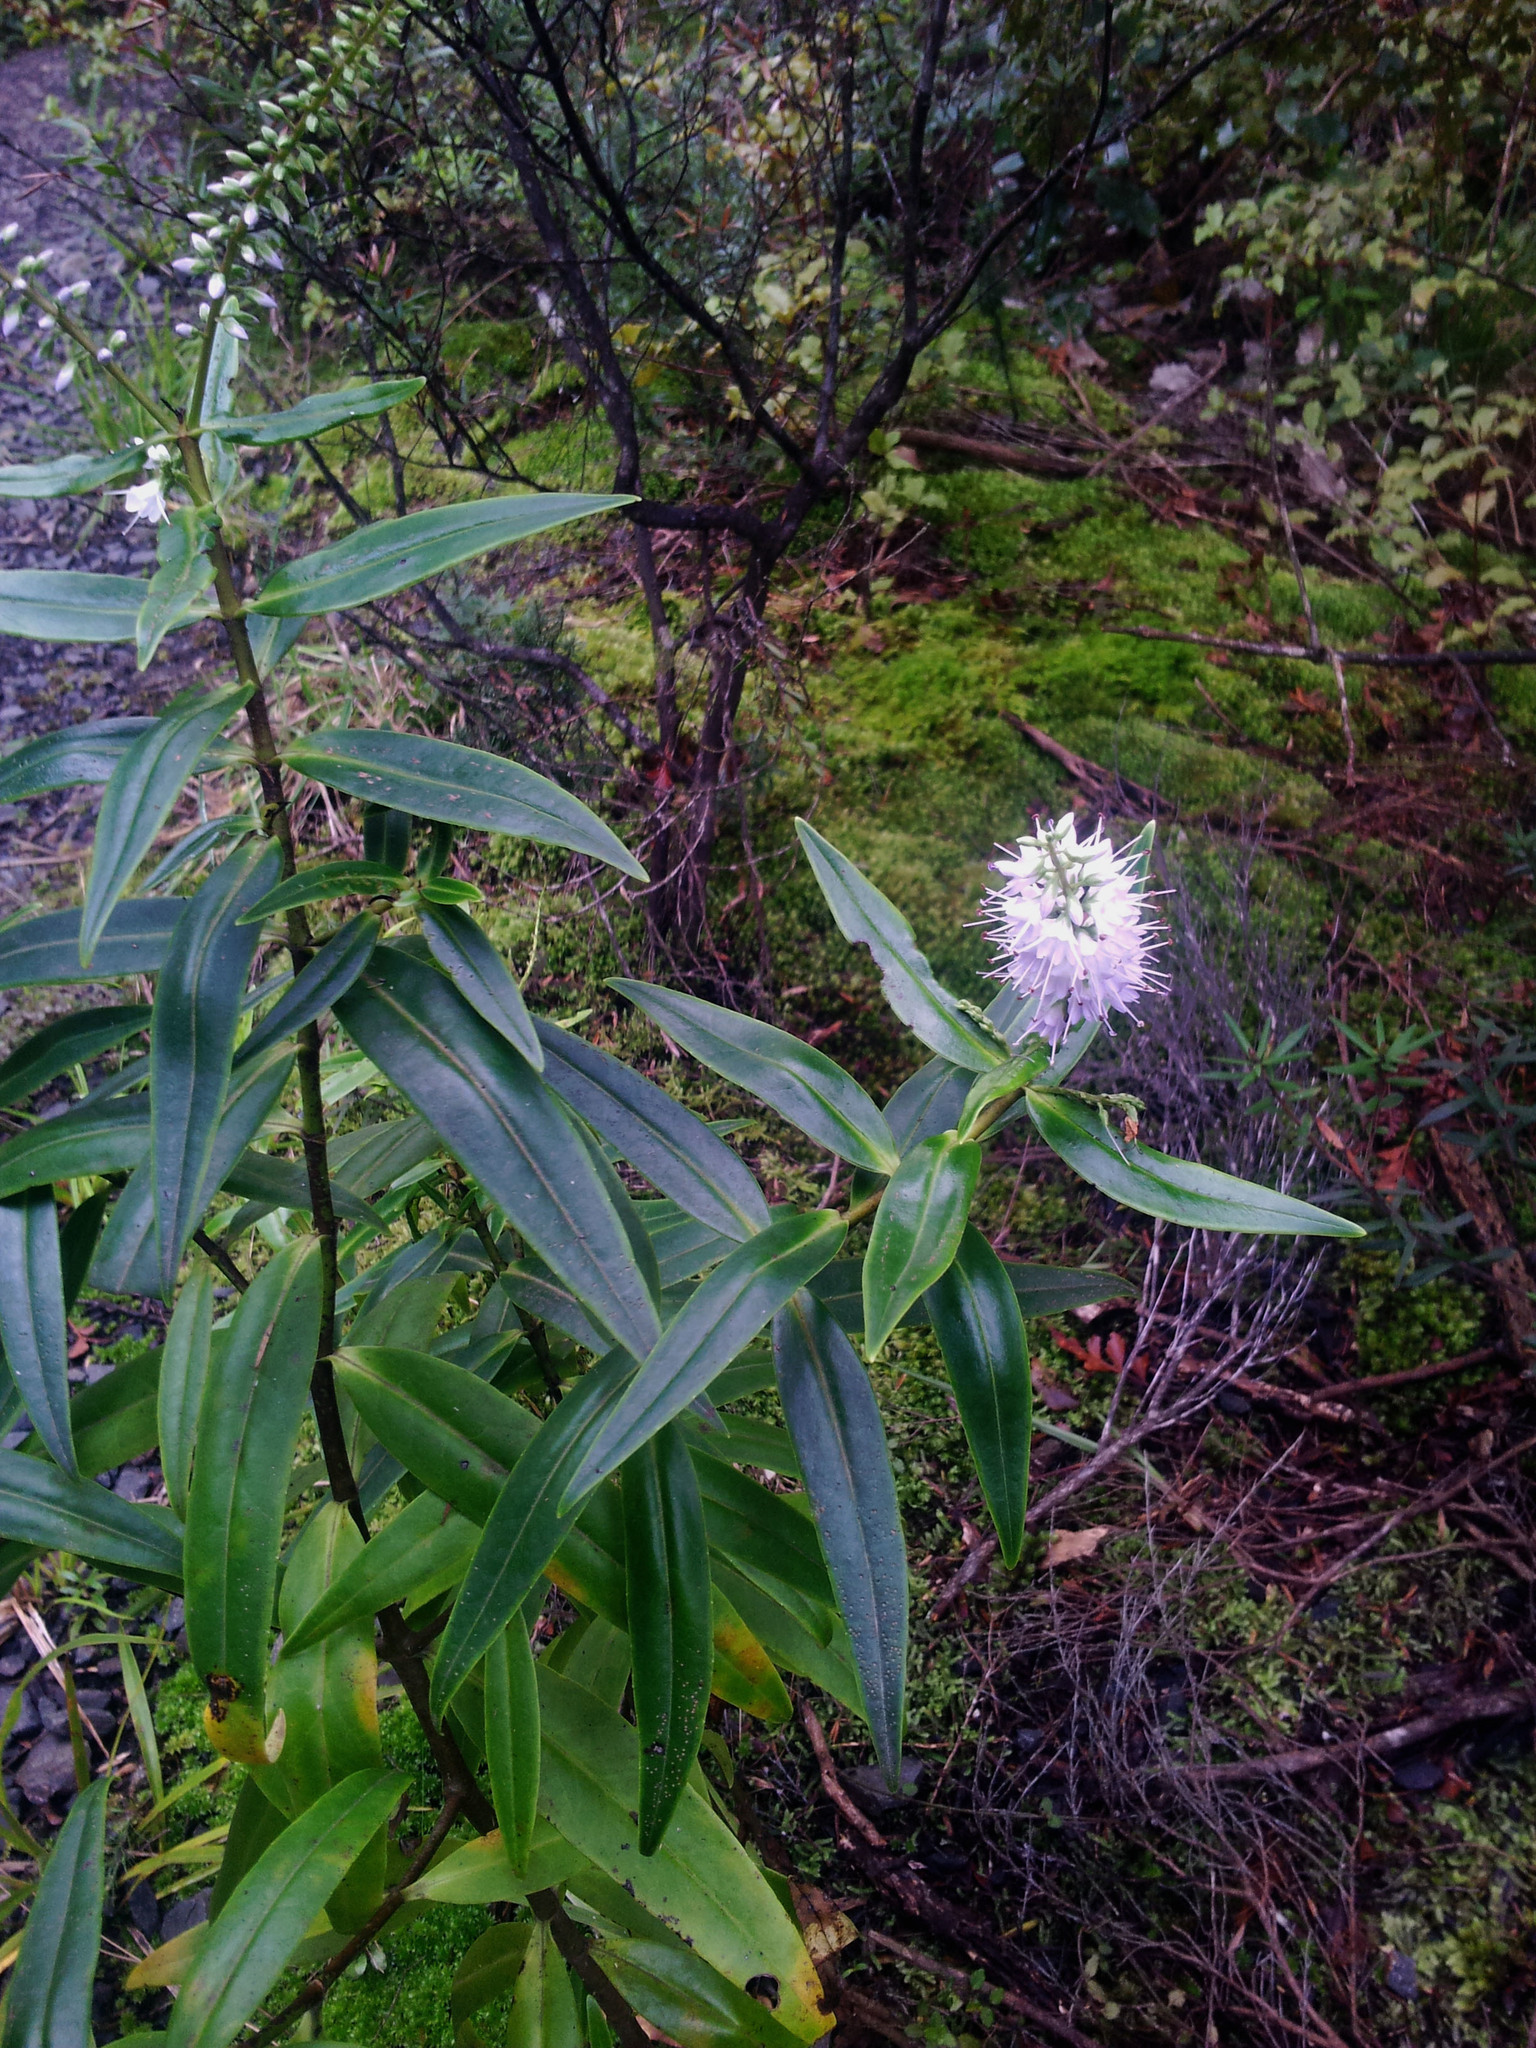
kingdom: Plantae
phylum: Tracheophyta
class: Magnoliopsida
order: Lamiales
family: Plantaginaceae
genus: Veronica
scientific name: Veronica macrocarpa
